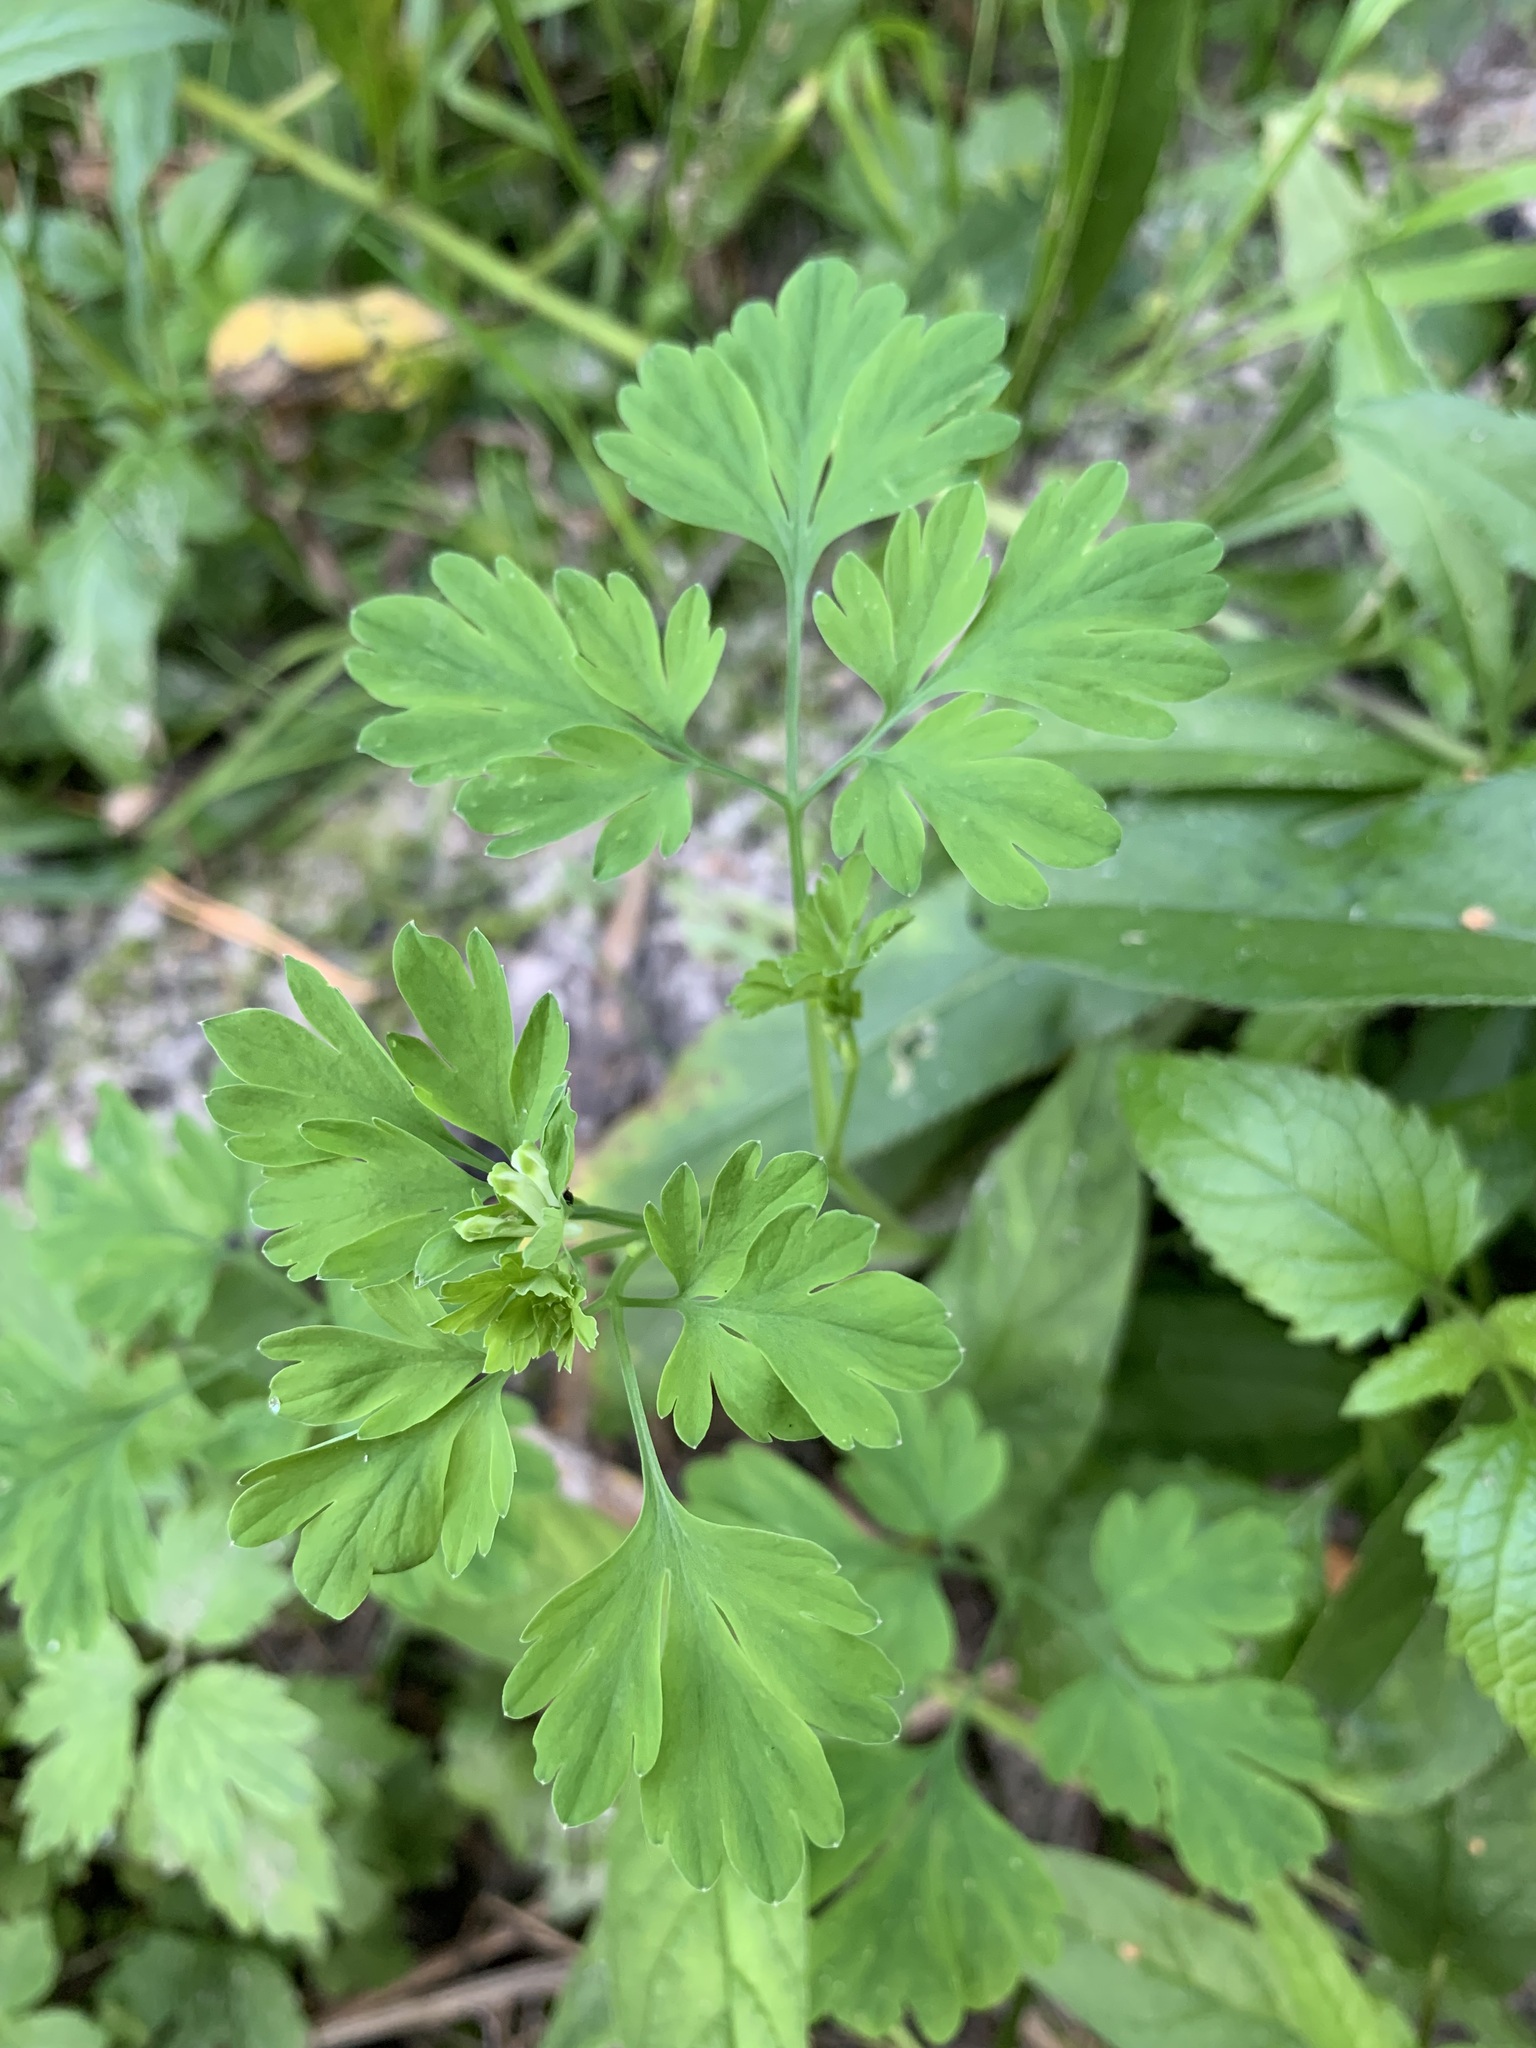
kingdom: Plantae
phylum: Tracheophyta
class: Magnoliopsida
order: Ranunculales
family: Papaveraceae
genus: Corydalis
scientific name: Corydalis capnoides
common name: Beaked corydalis
